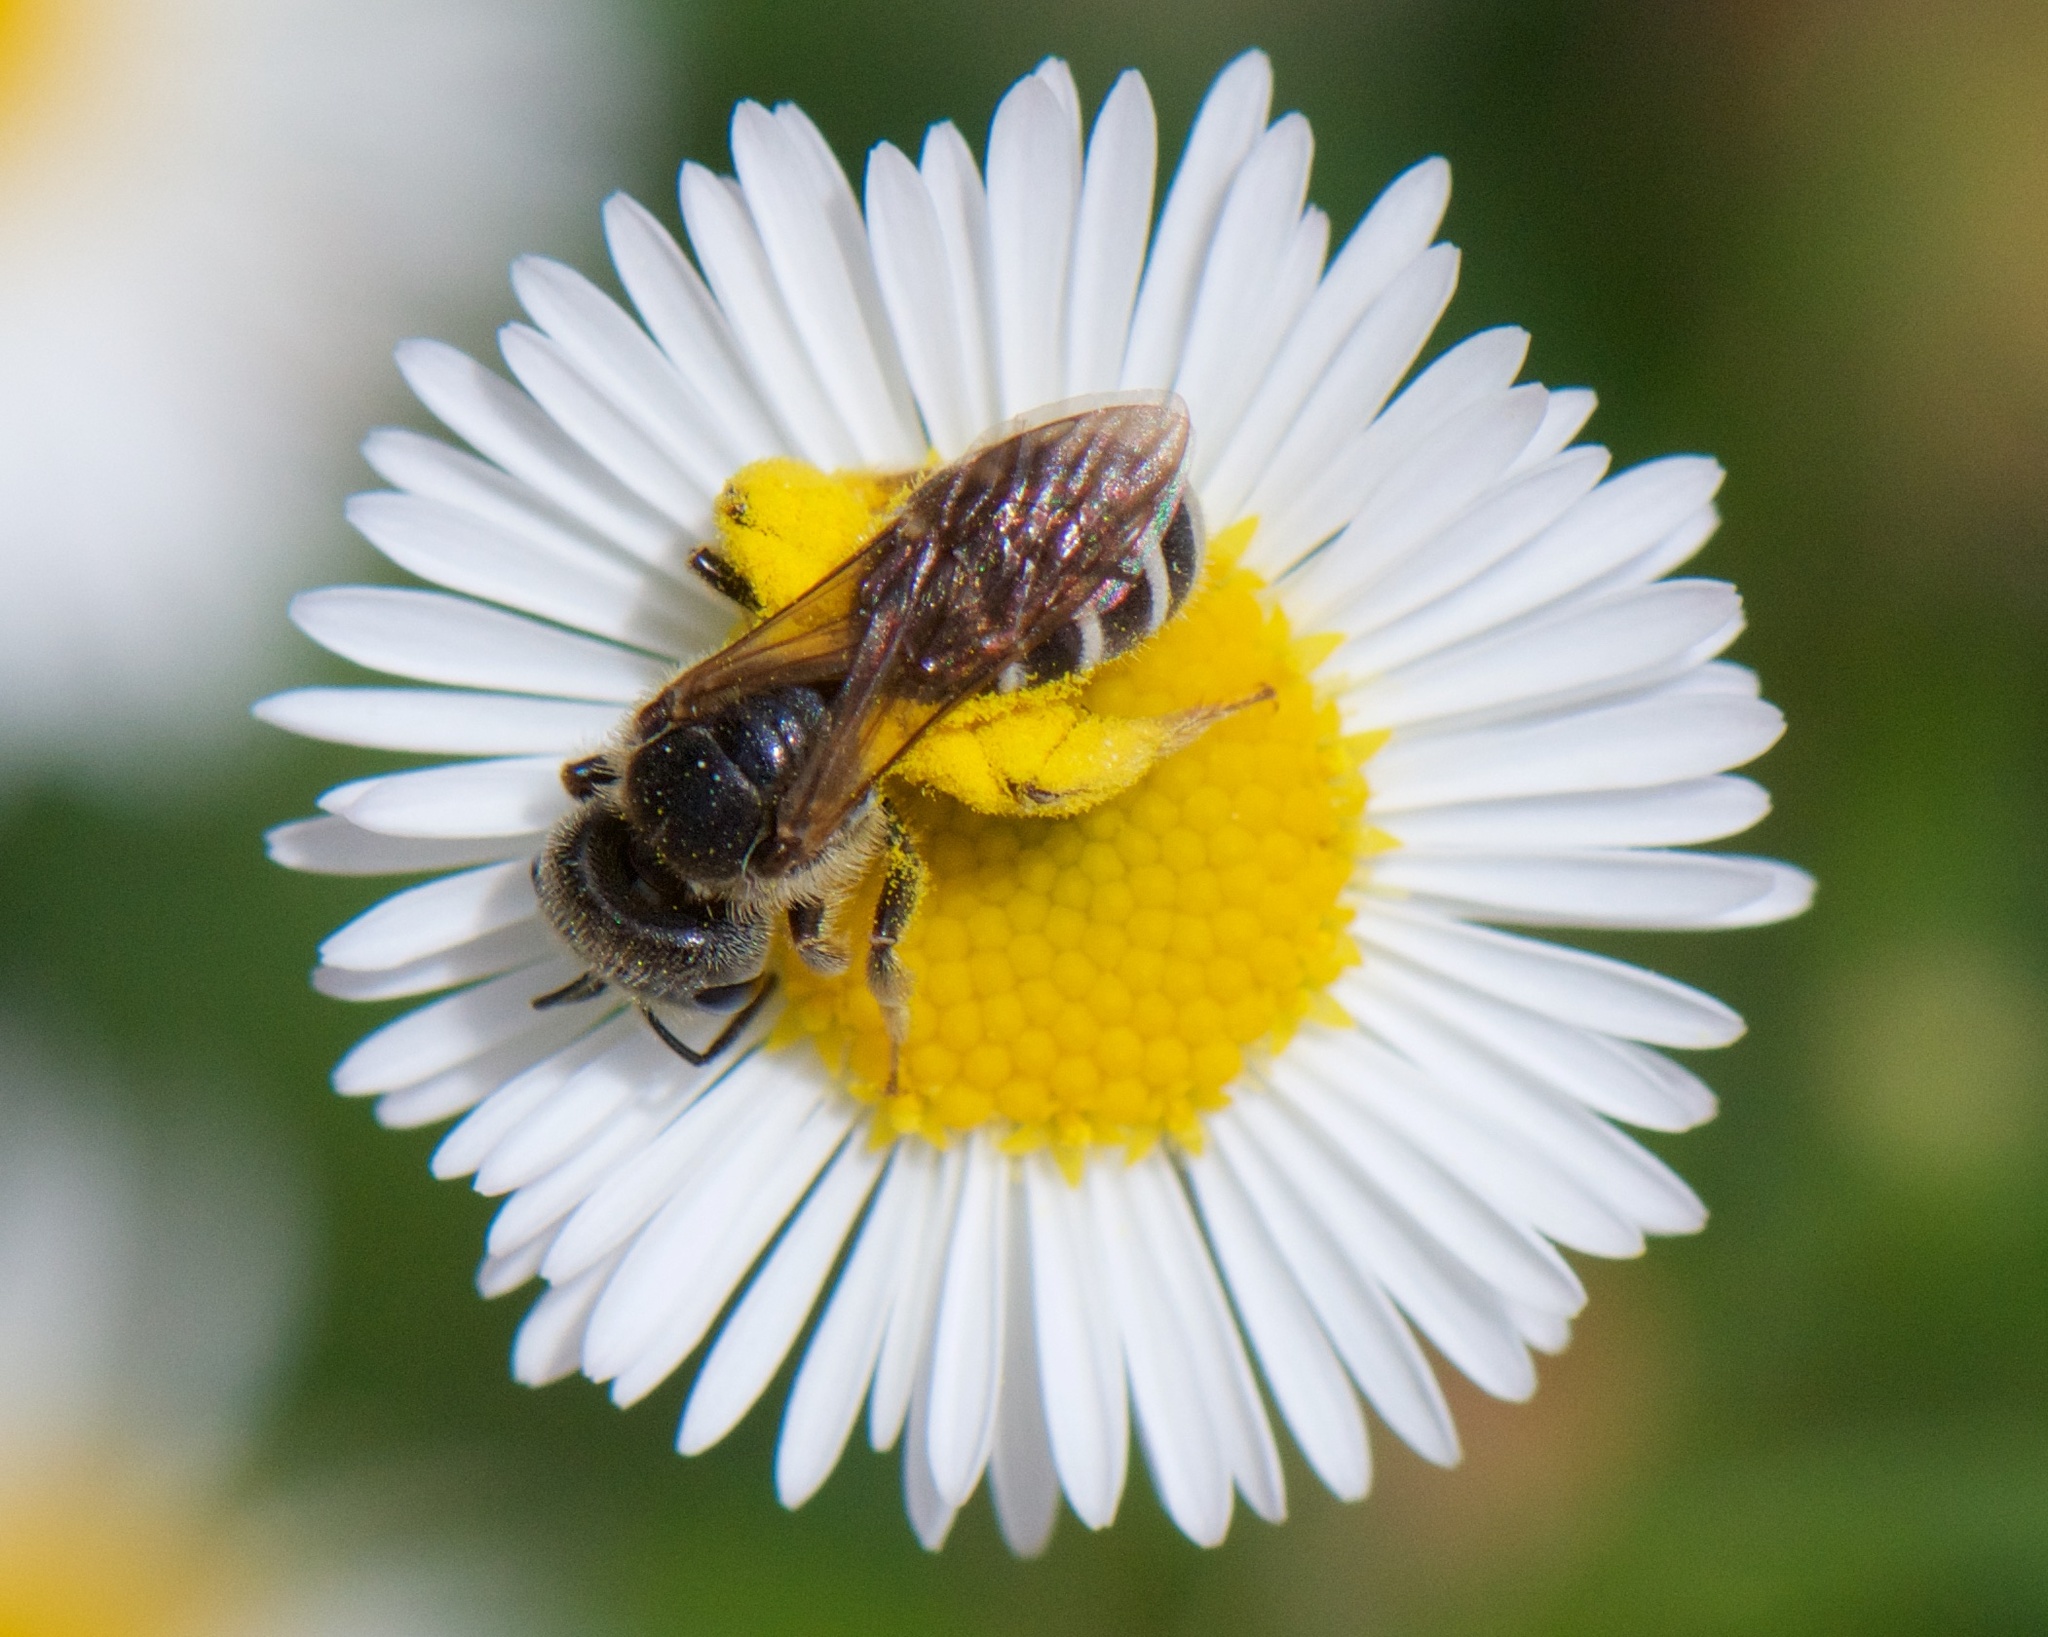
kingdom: Animalia
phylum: Arthropoda
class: Insecta
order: Hymenoptera
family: Halictidae
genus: Halictus
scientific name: Halictus ligatus
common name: Ligated furrow bee
